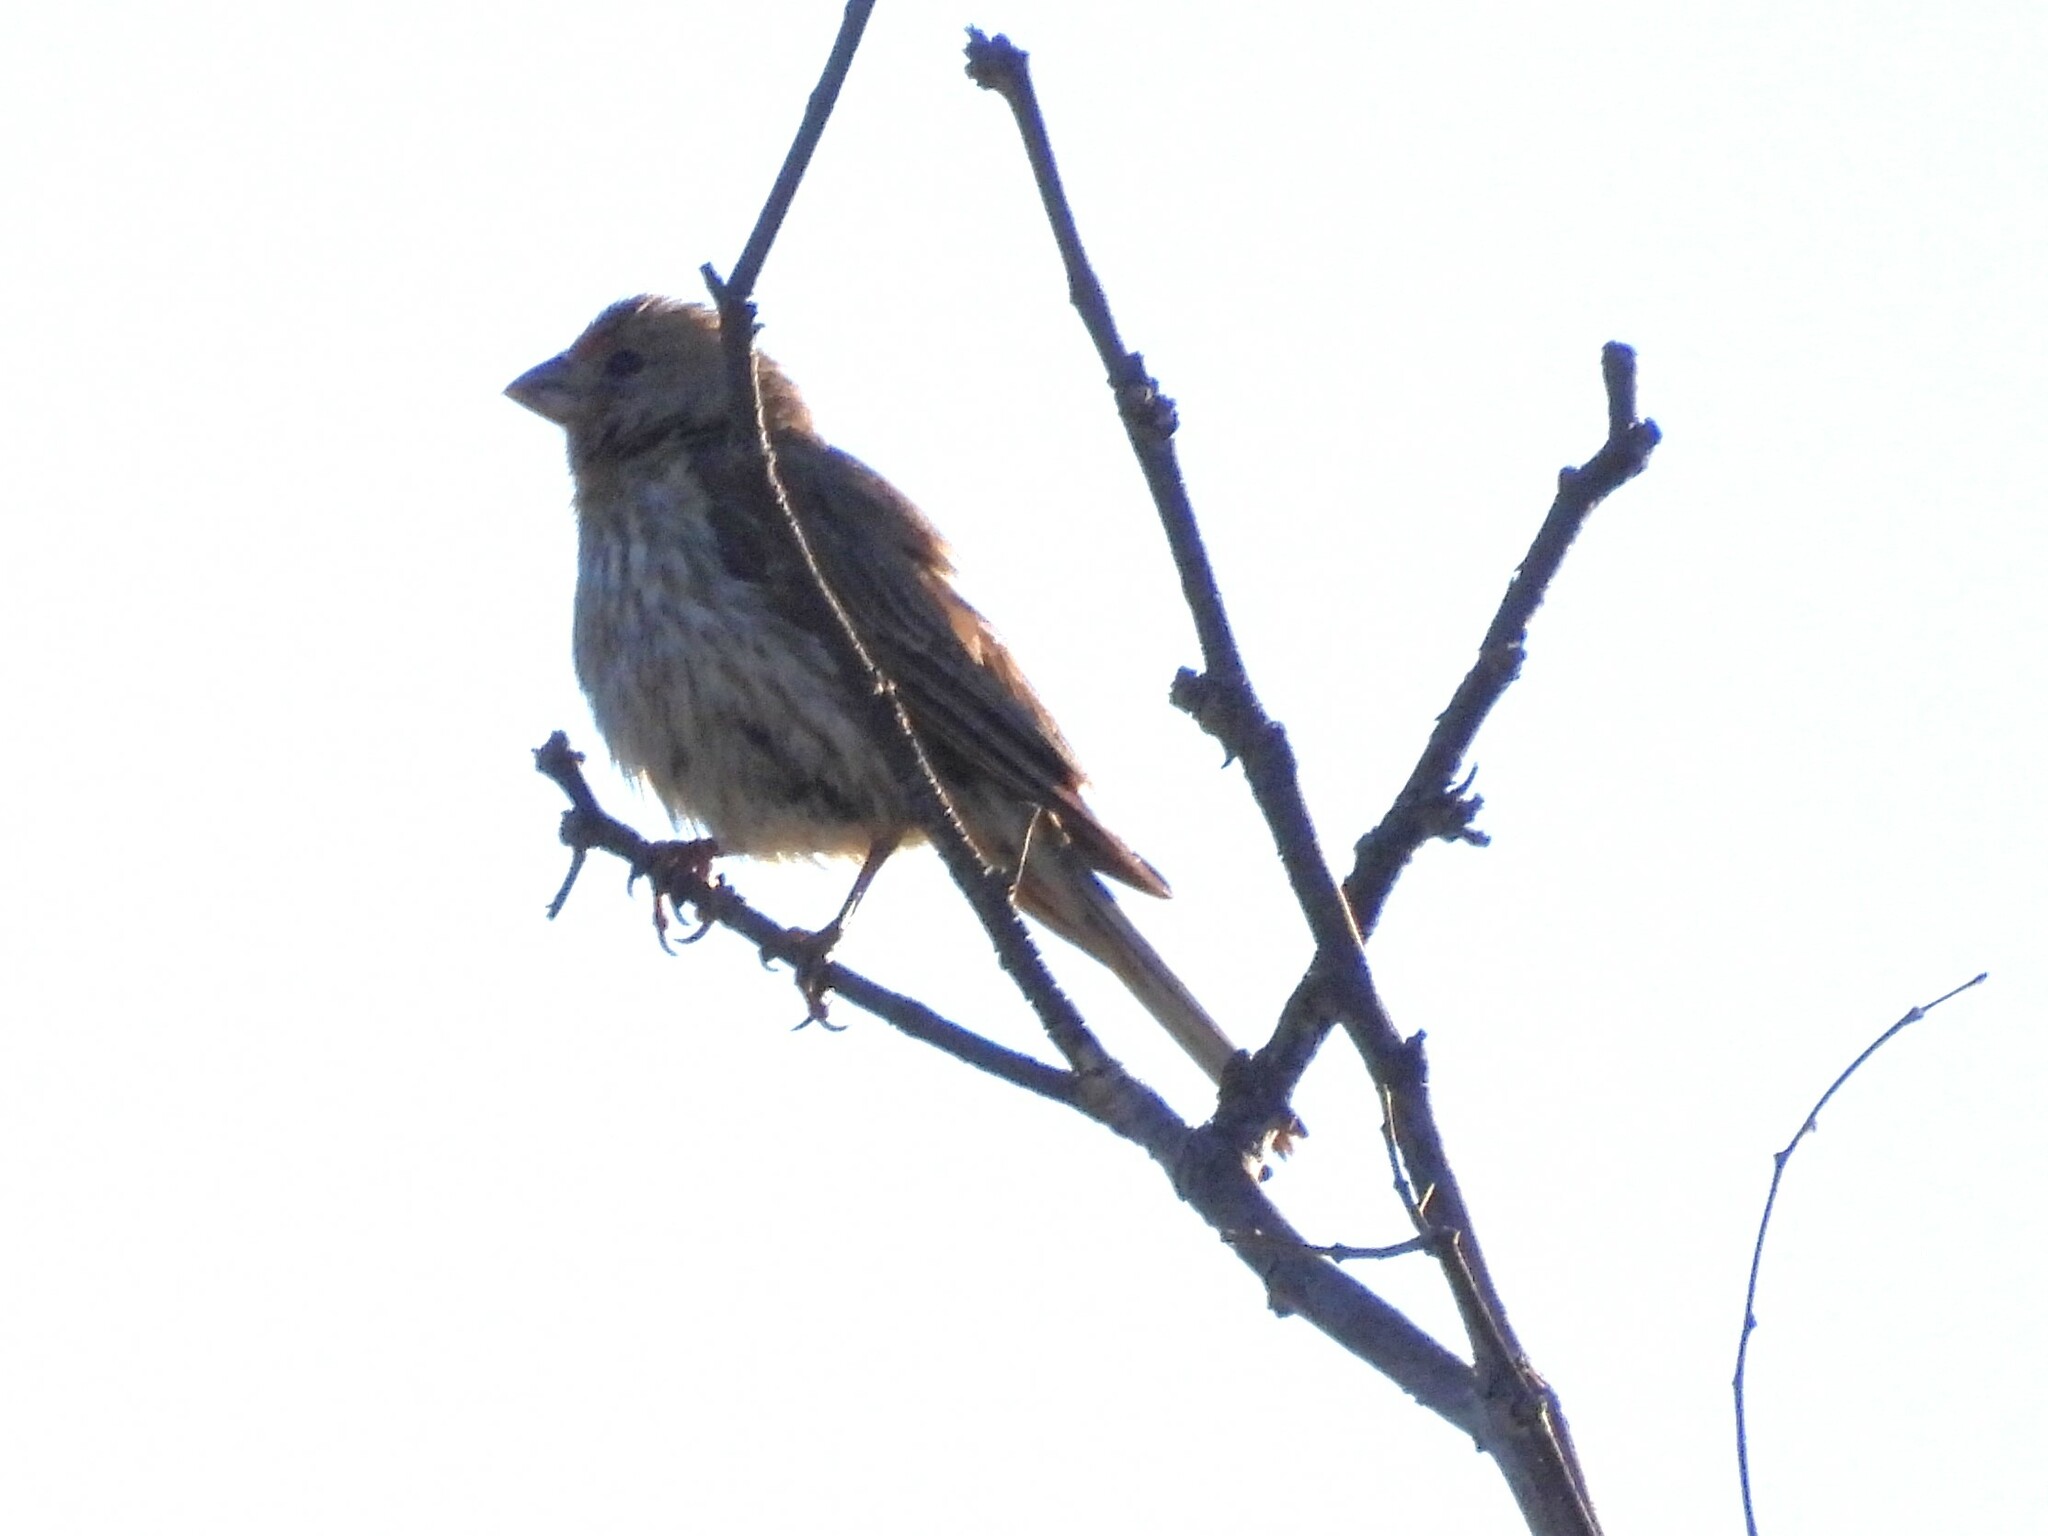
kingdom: Animalia
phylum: Chordata
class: Aves
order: Passeriformes
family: Fringillidae
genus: Haemorhous
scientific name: Haemorhous mexicanus
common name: House finch
